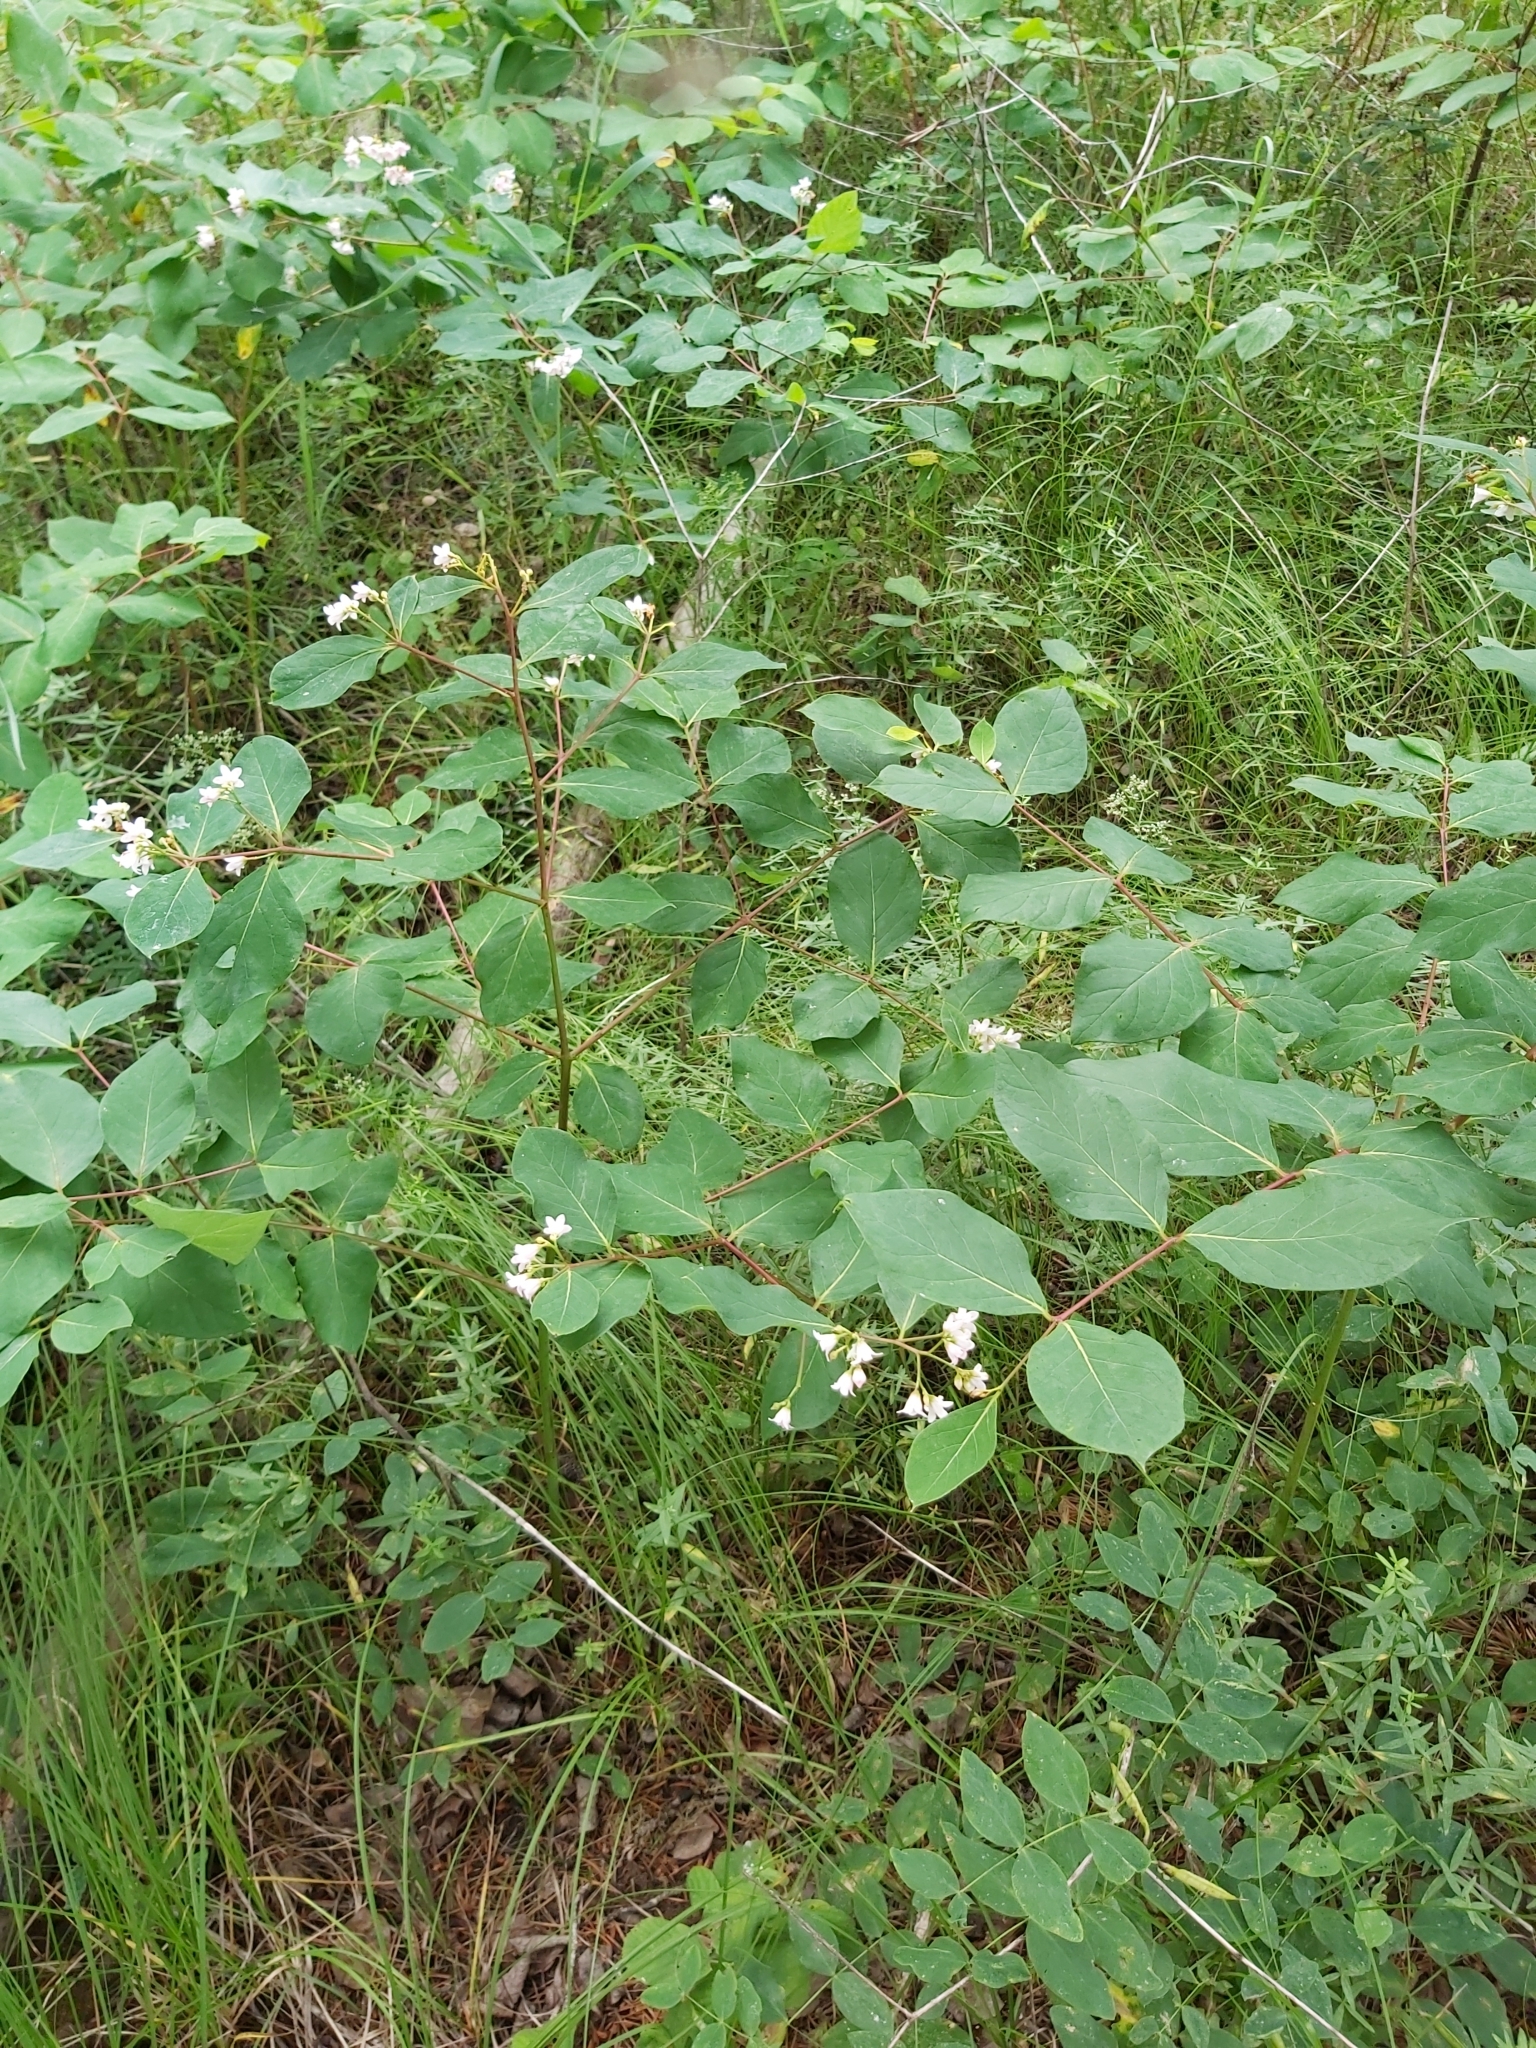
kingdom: Plantae
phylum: Tracheophyta
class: Magnoliopsida
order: Gentianales
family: Apocynaceae
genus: Apocynum
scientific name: Apocynum androsaemifolium
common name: Spreading dogbane
